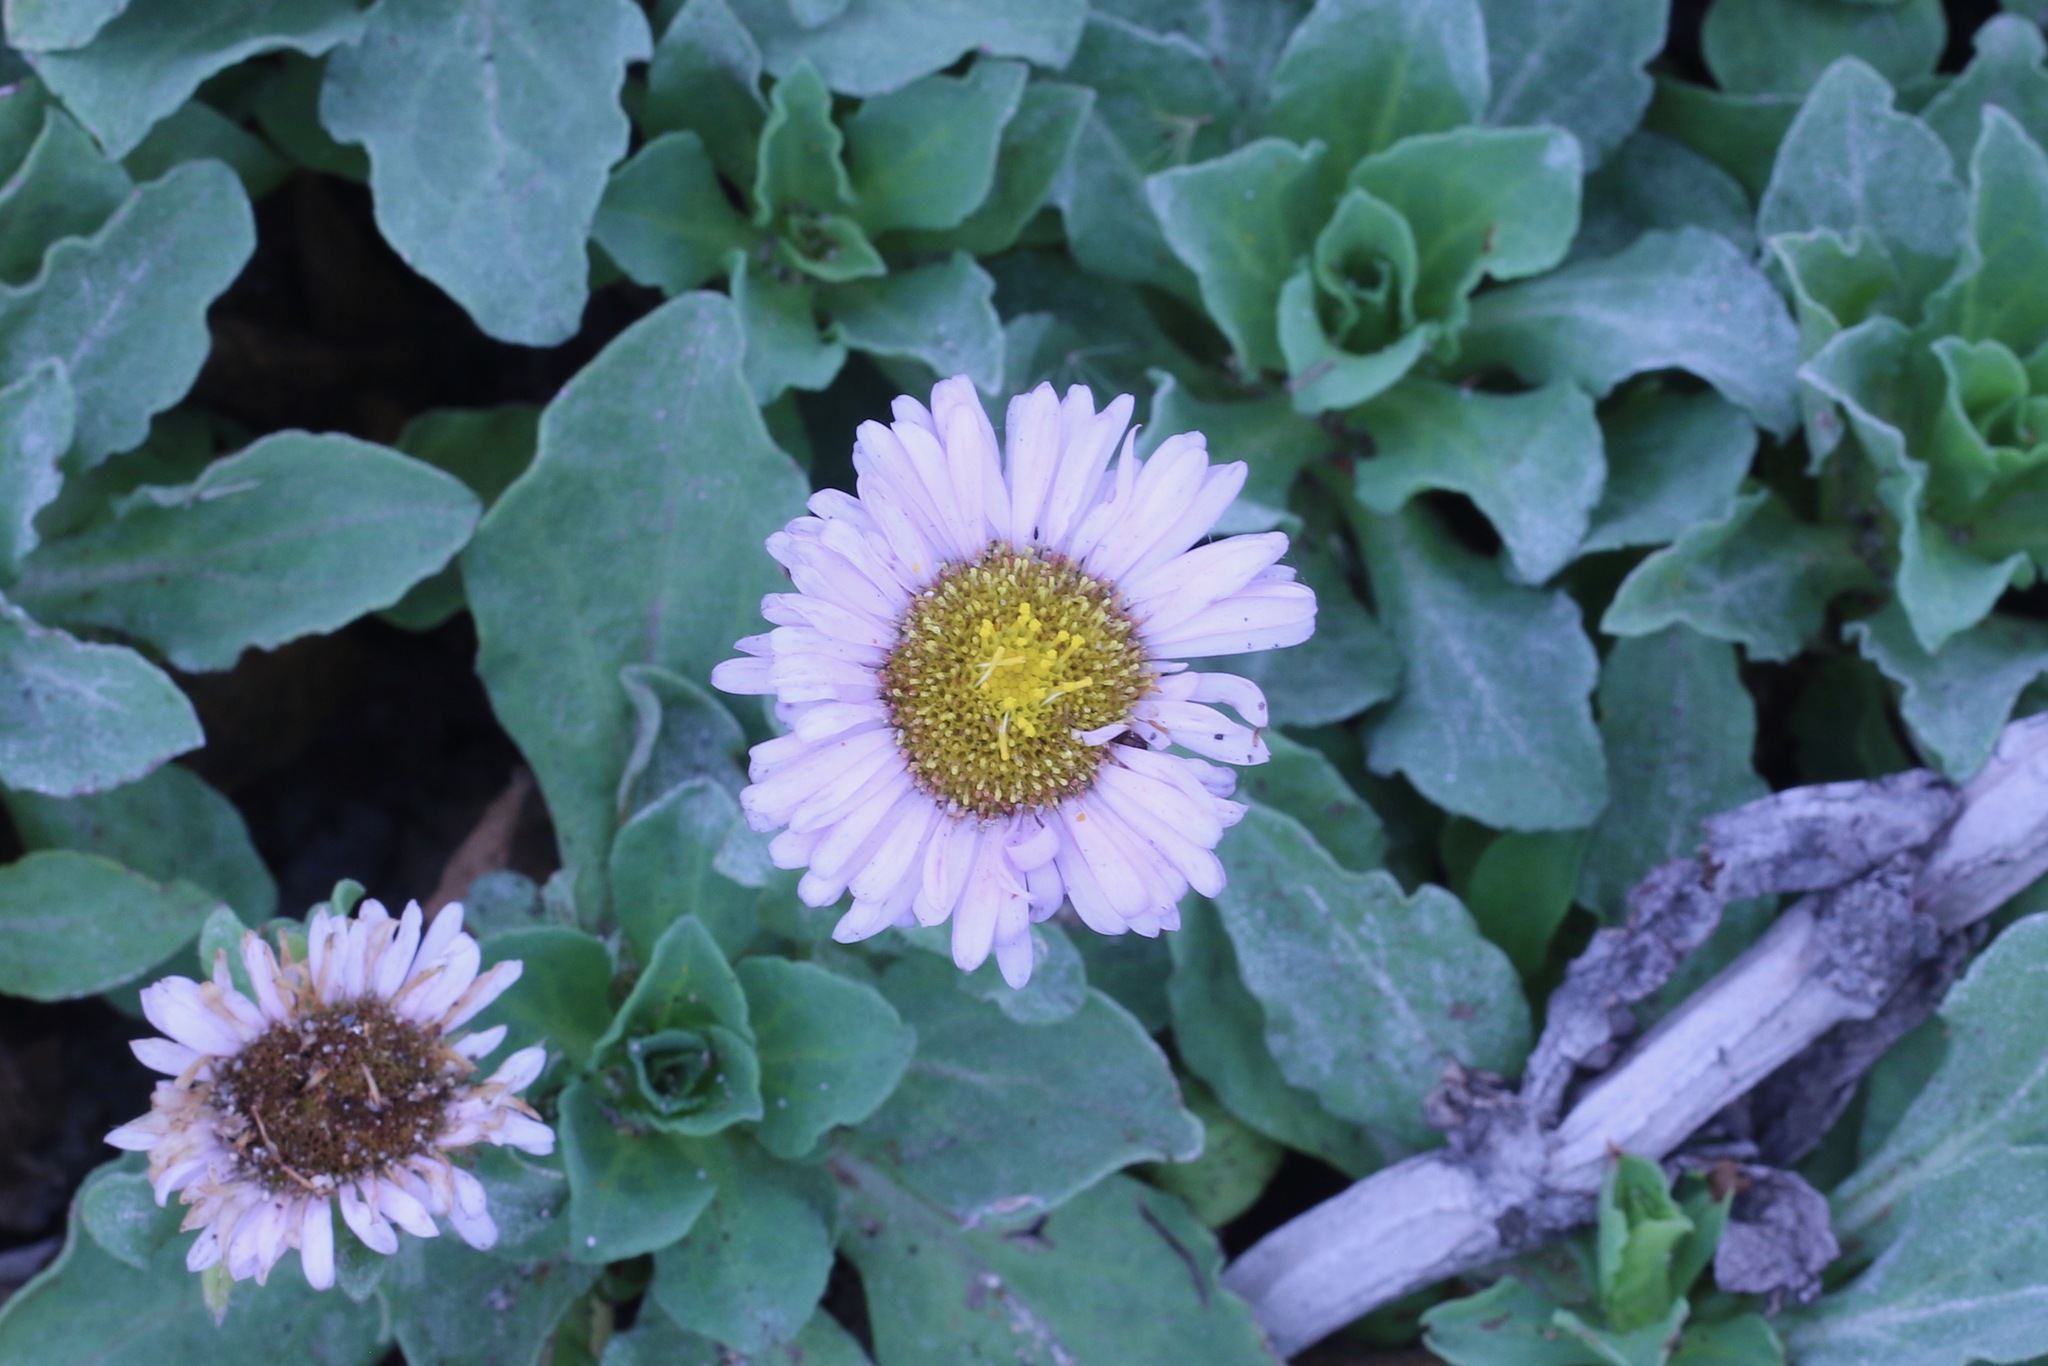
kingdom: Plantae
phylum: Tracheophyta
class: Magnoliopsida
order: Asterales
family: Asteraceae
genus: Erigeron
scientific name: Erigeron glaucus
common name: Seaside daisy
